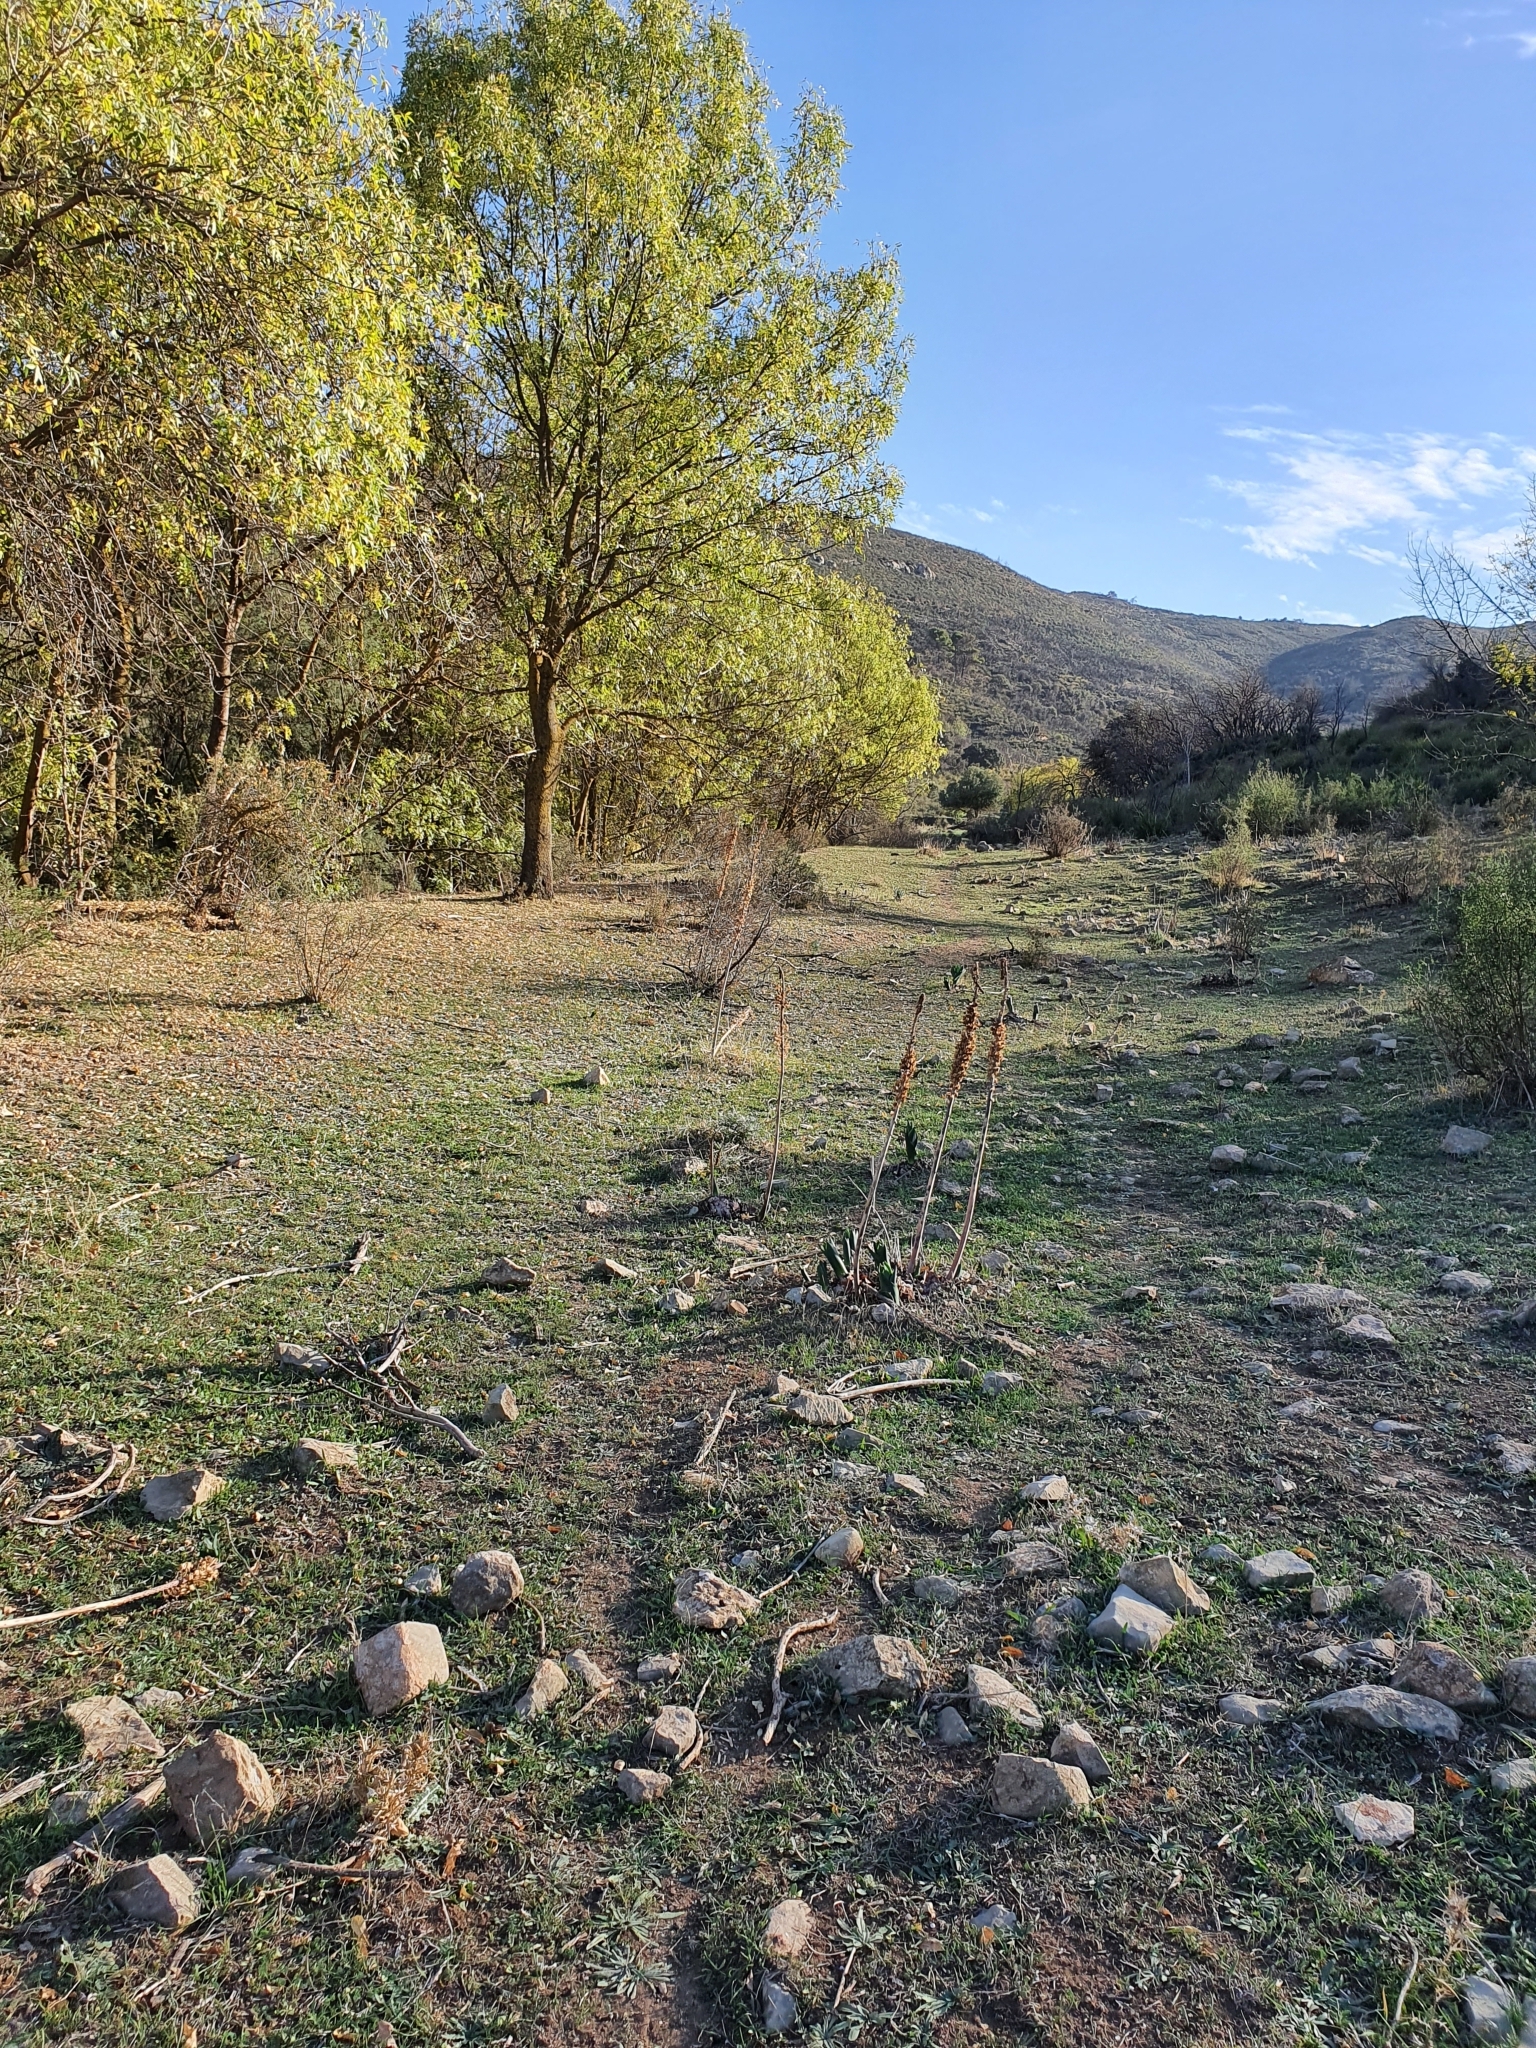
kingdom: Plantae
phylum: Tracheophyta
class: Liliopsida
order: Asparagales
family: Asparagaceae
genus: Drimia
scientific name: Drimia numidica
